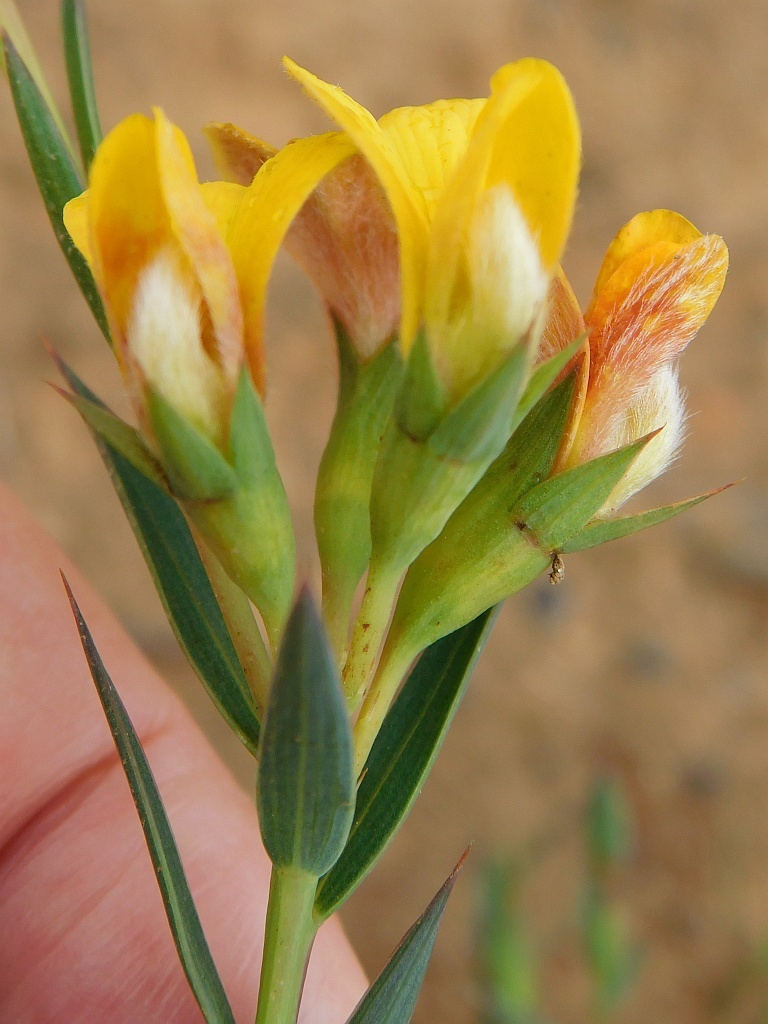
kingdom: Plantae
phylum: Tracheophyta
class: Magnoliopsida
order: Fabales
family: Fabaceae
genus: Aspalathus
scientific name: Aspalathus angustifolia
